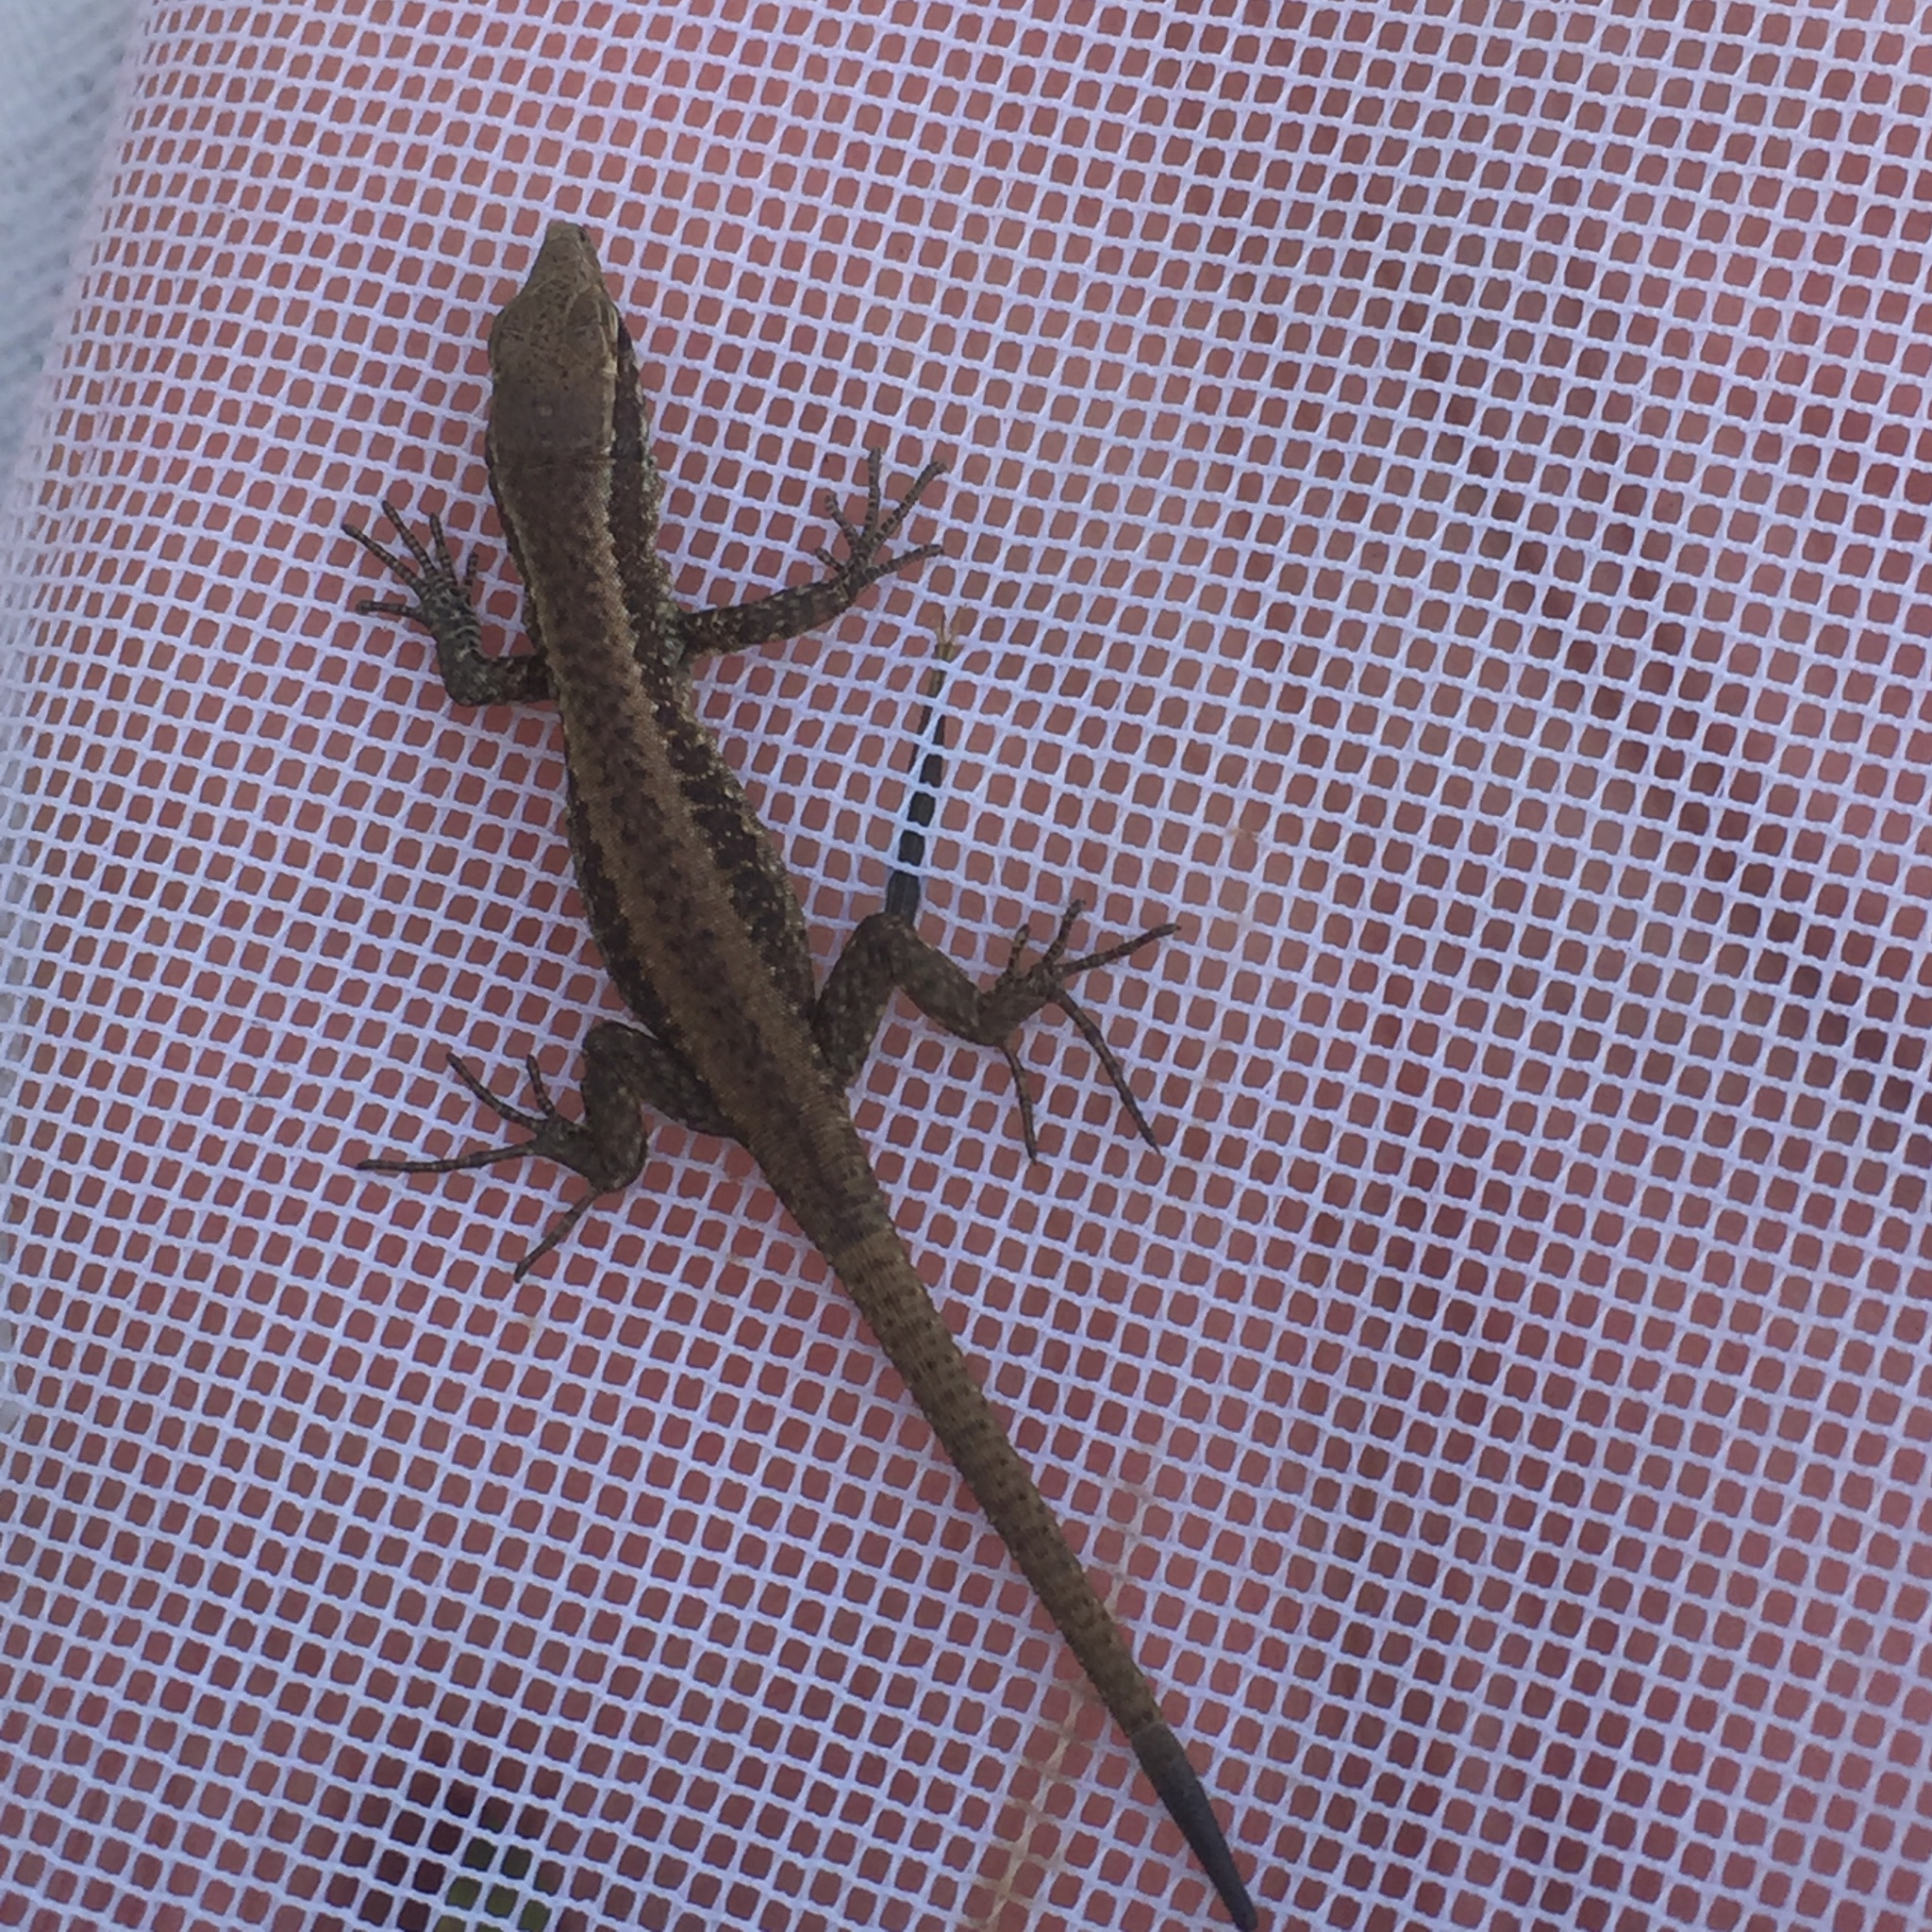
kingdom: Animalia
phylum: Chordata
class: Squamata
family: Lacertidae
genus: Teira
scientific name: Teira dugesii
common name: Madeira lizard
